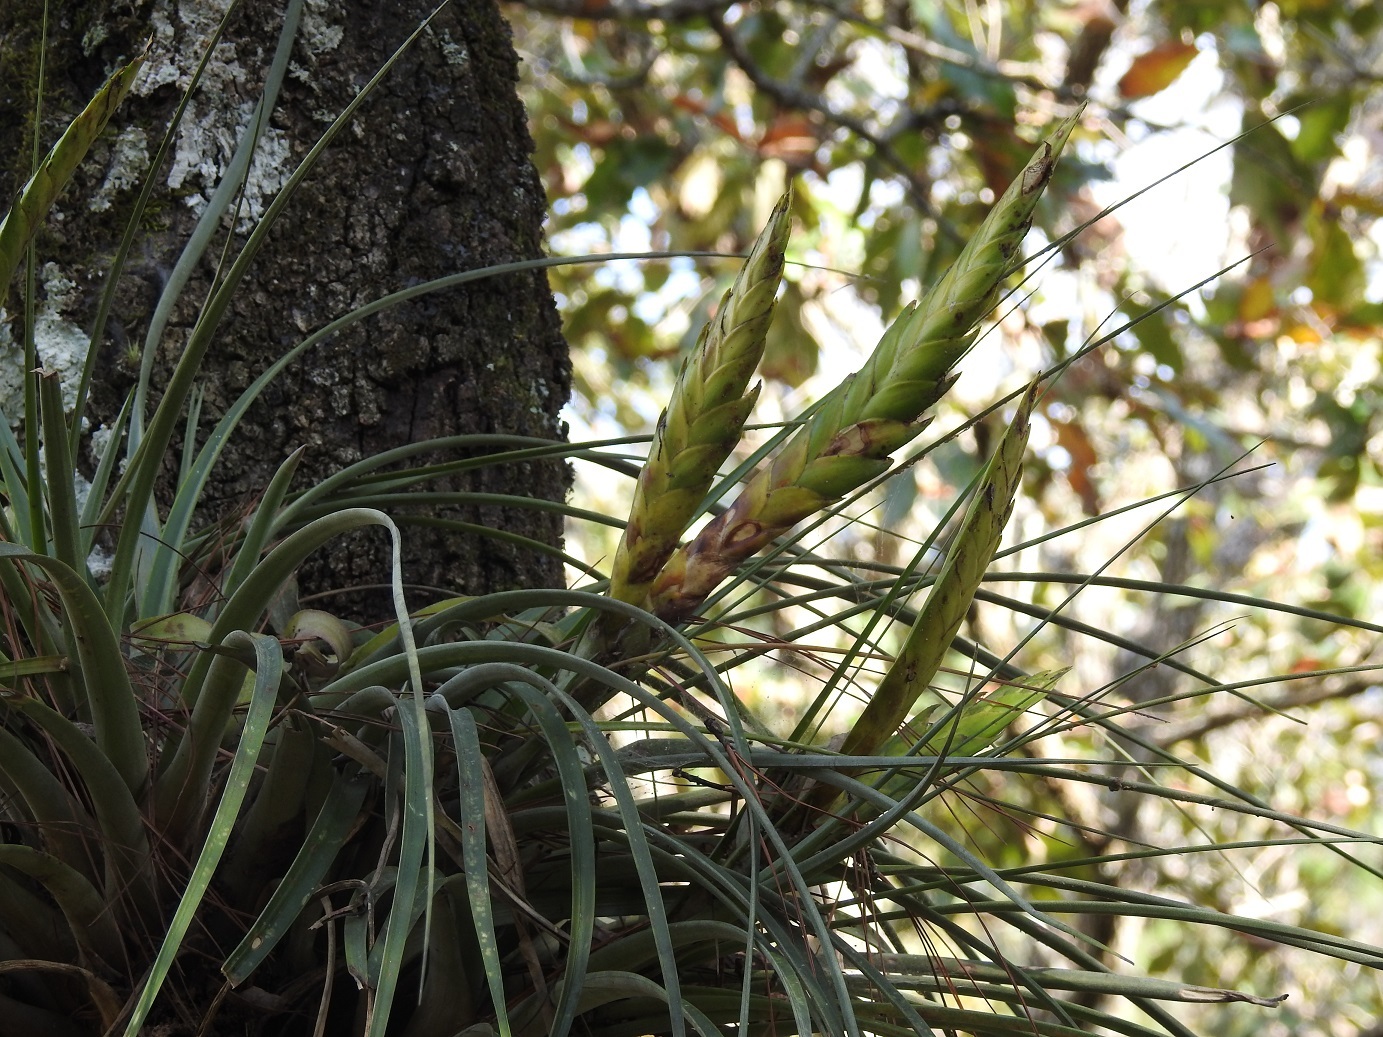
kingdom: Plantae
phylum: Tracheophyta
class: Liliopsida
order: Poales
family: Bromeliaceae
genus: Tillandsia
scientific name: Tillandsia flavobracteata
